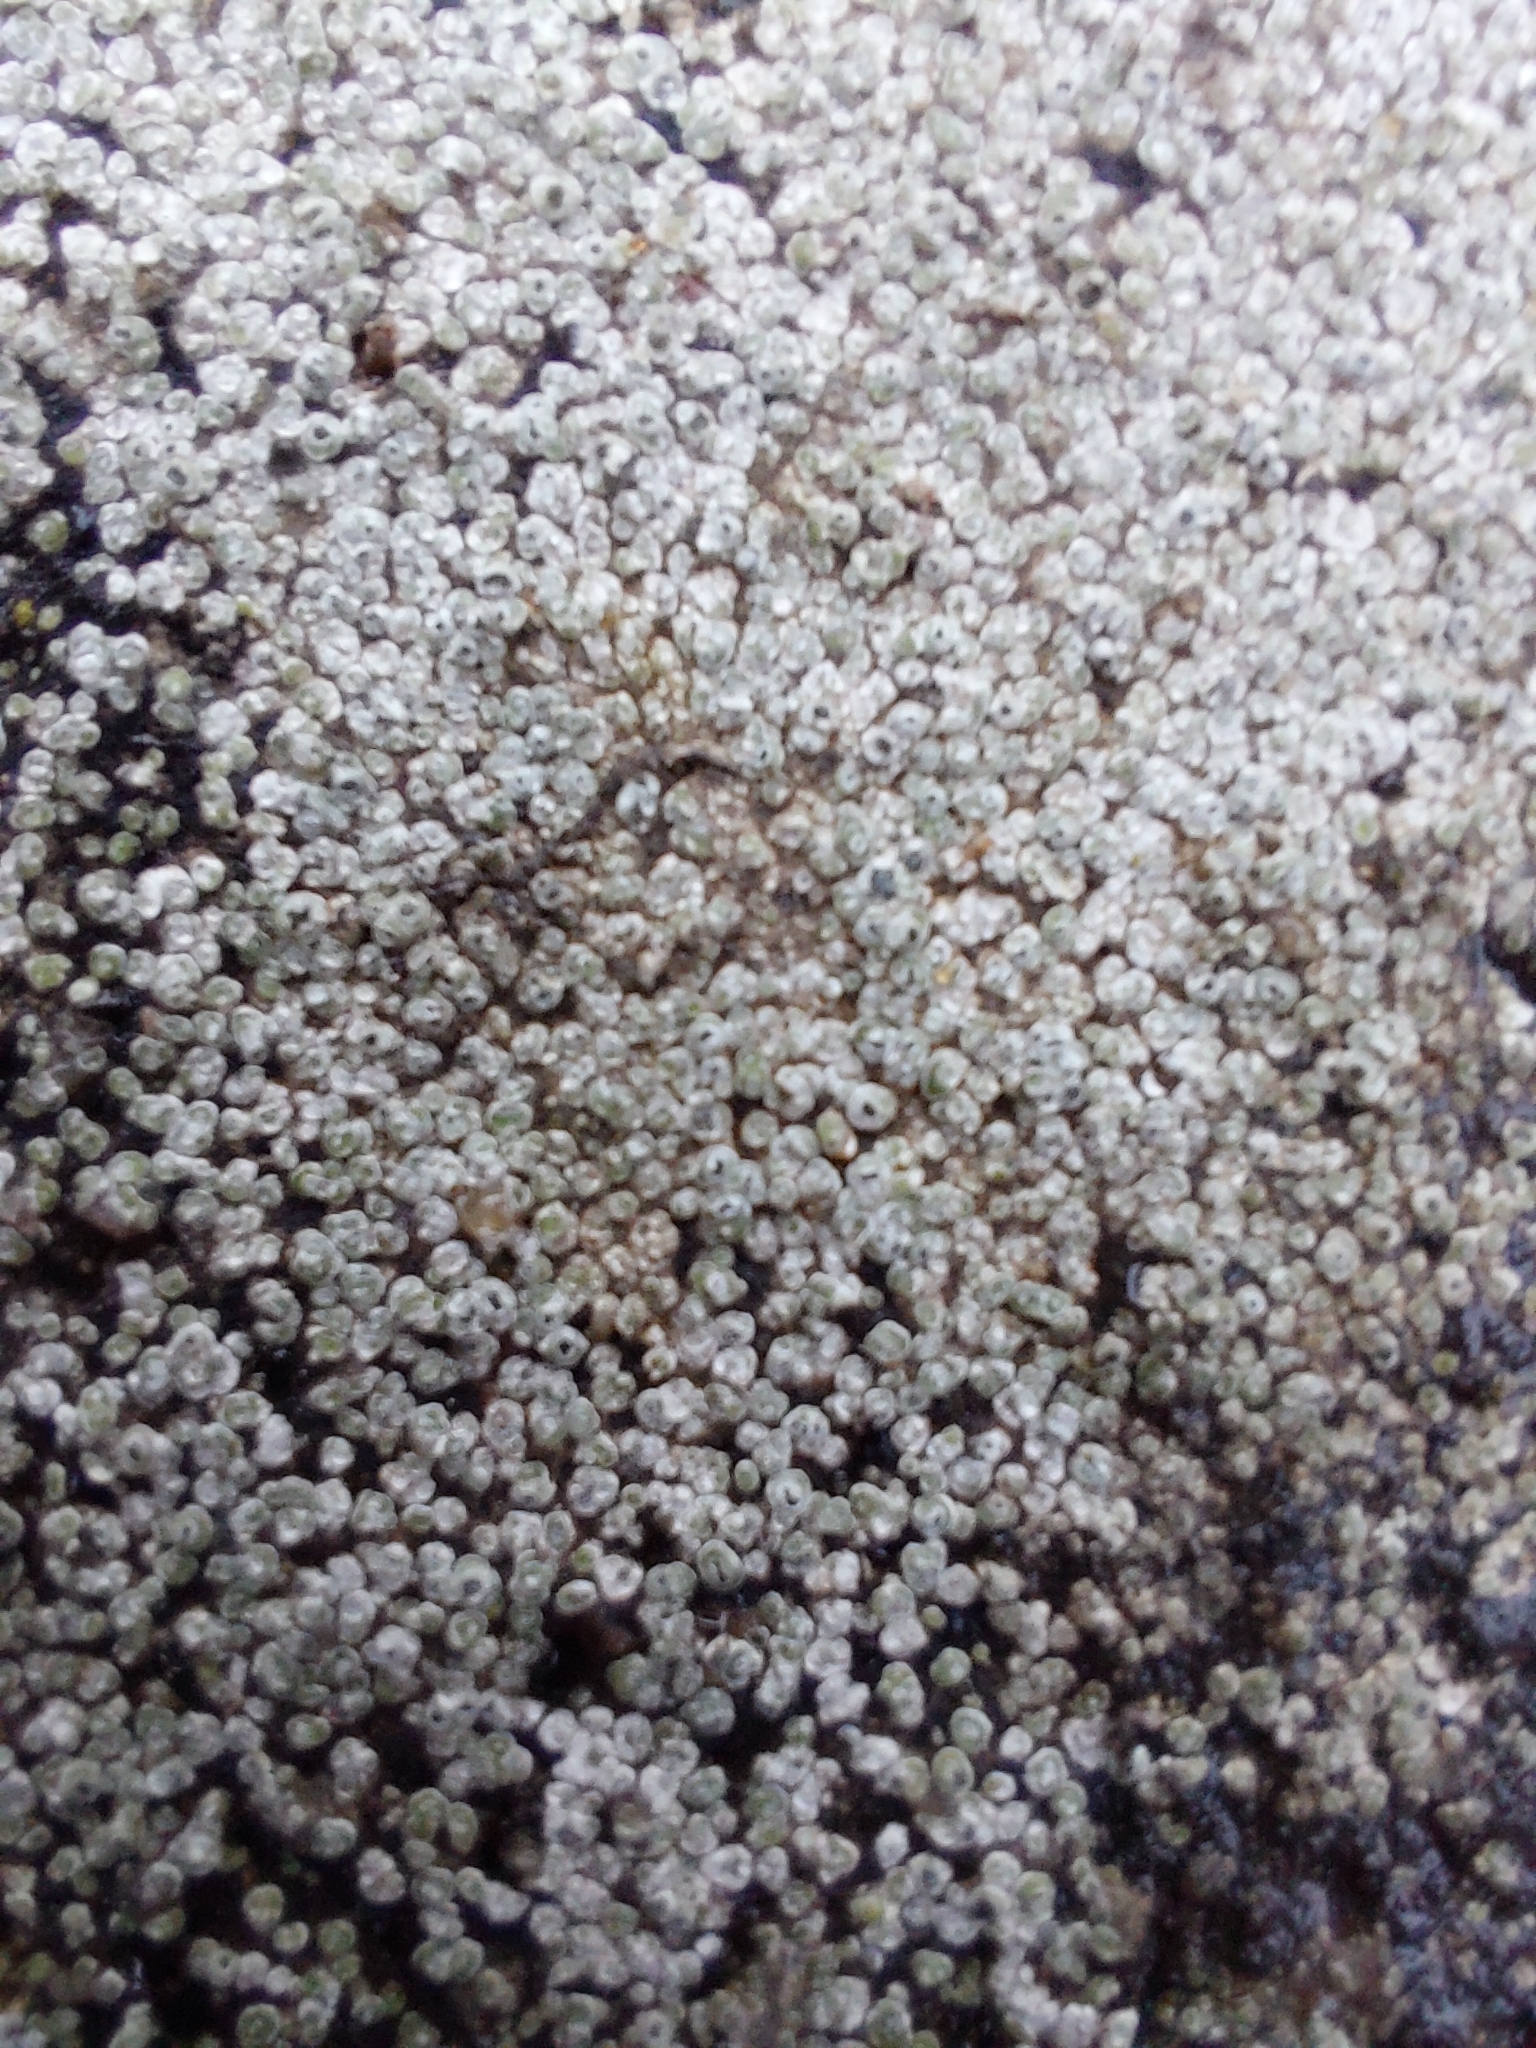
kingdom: Fungi
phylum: Ascomycota
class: Lecanoromycetes
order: Pertusariales
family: Megasporaceae
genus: Circinaria
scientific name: Circinaria contorta
